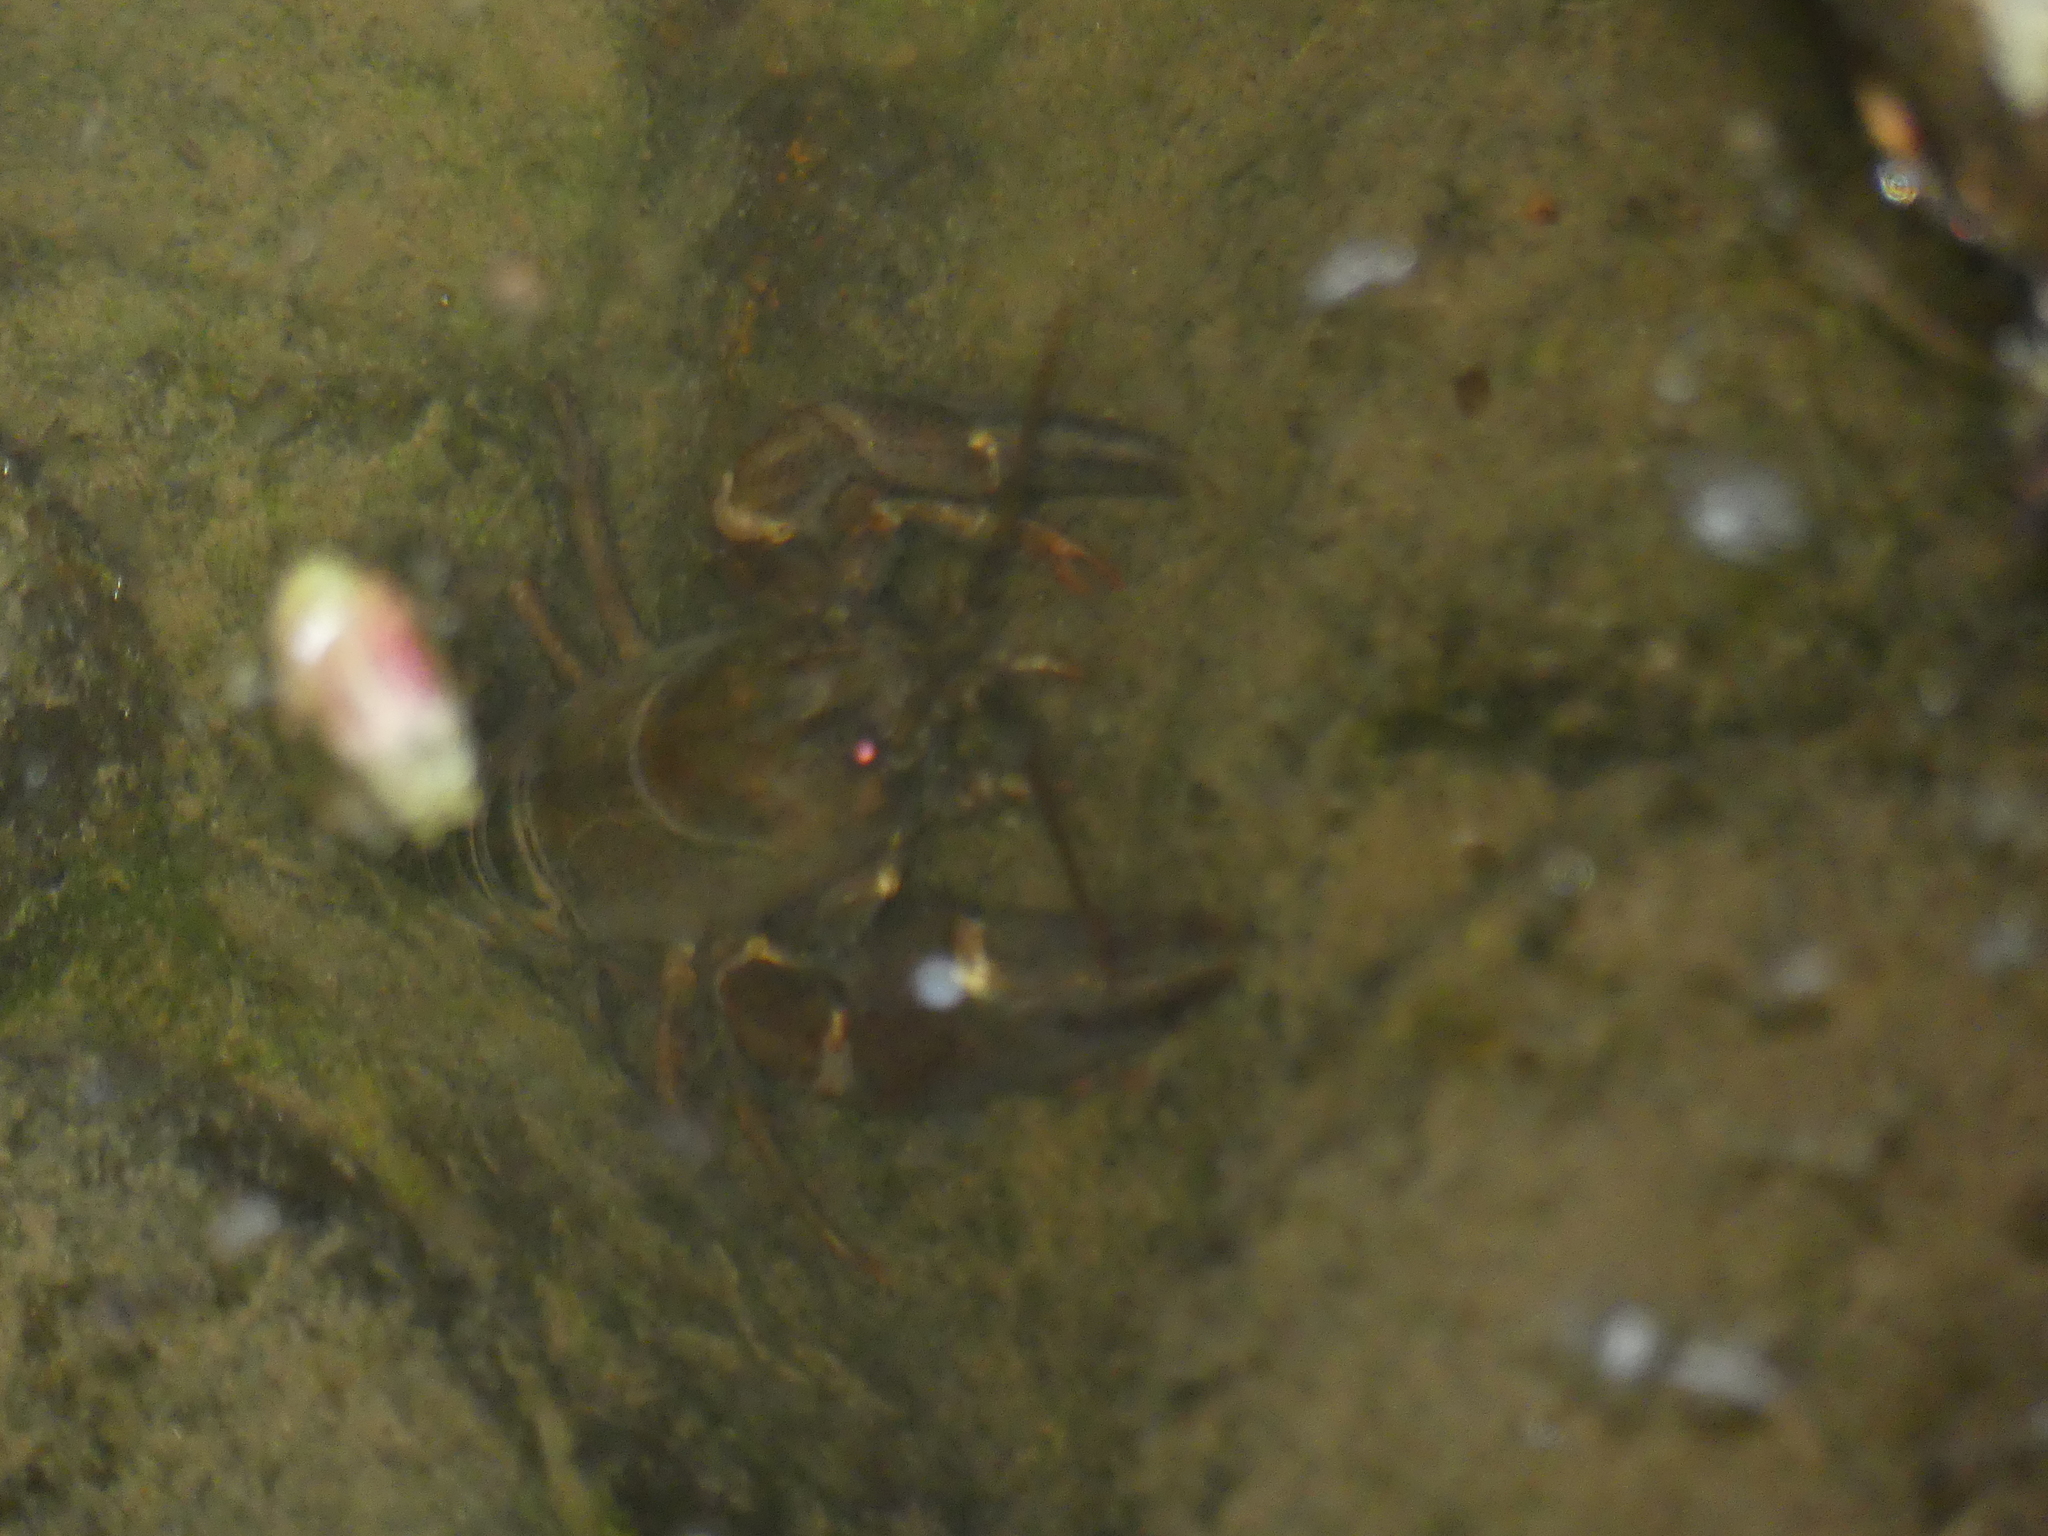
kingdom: Animalia
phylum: Arthropoda
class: Malacostraca
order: Decapoda
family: Astacidae
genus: Pacifastacus
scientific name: Pacifastacus leniusculus
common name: Signal crayfish
